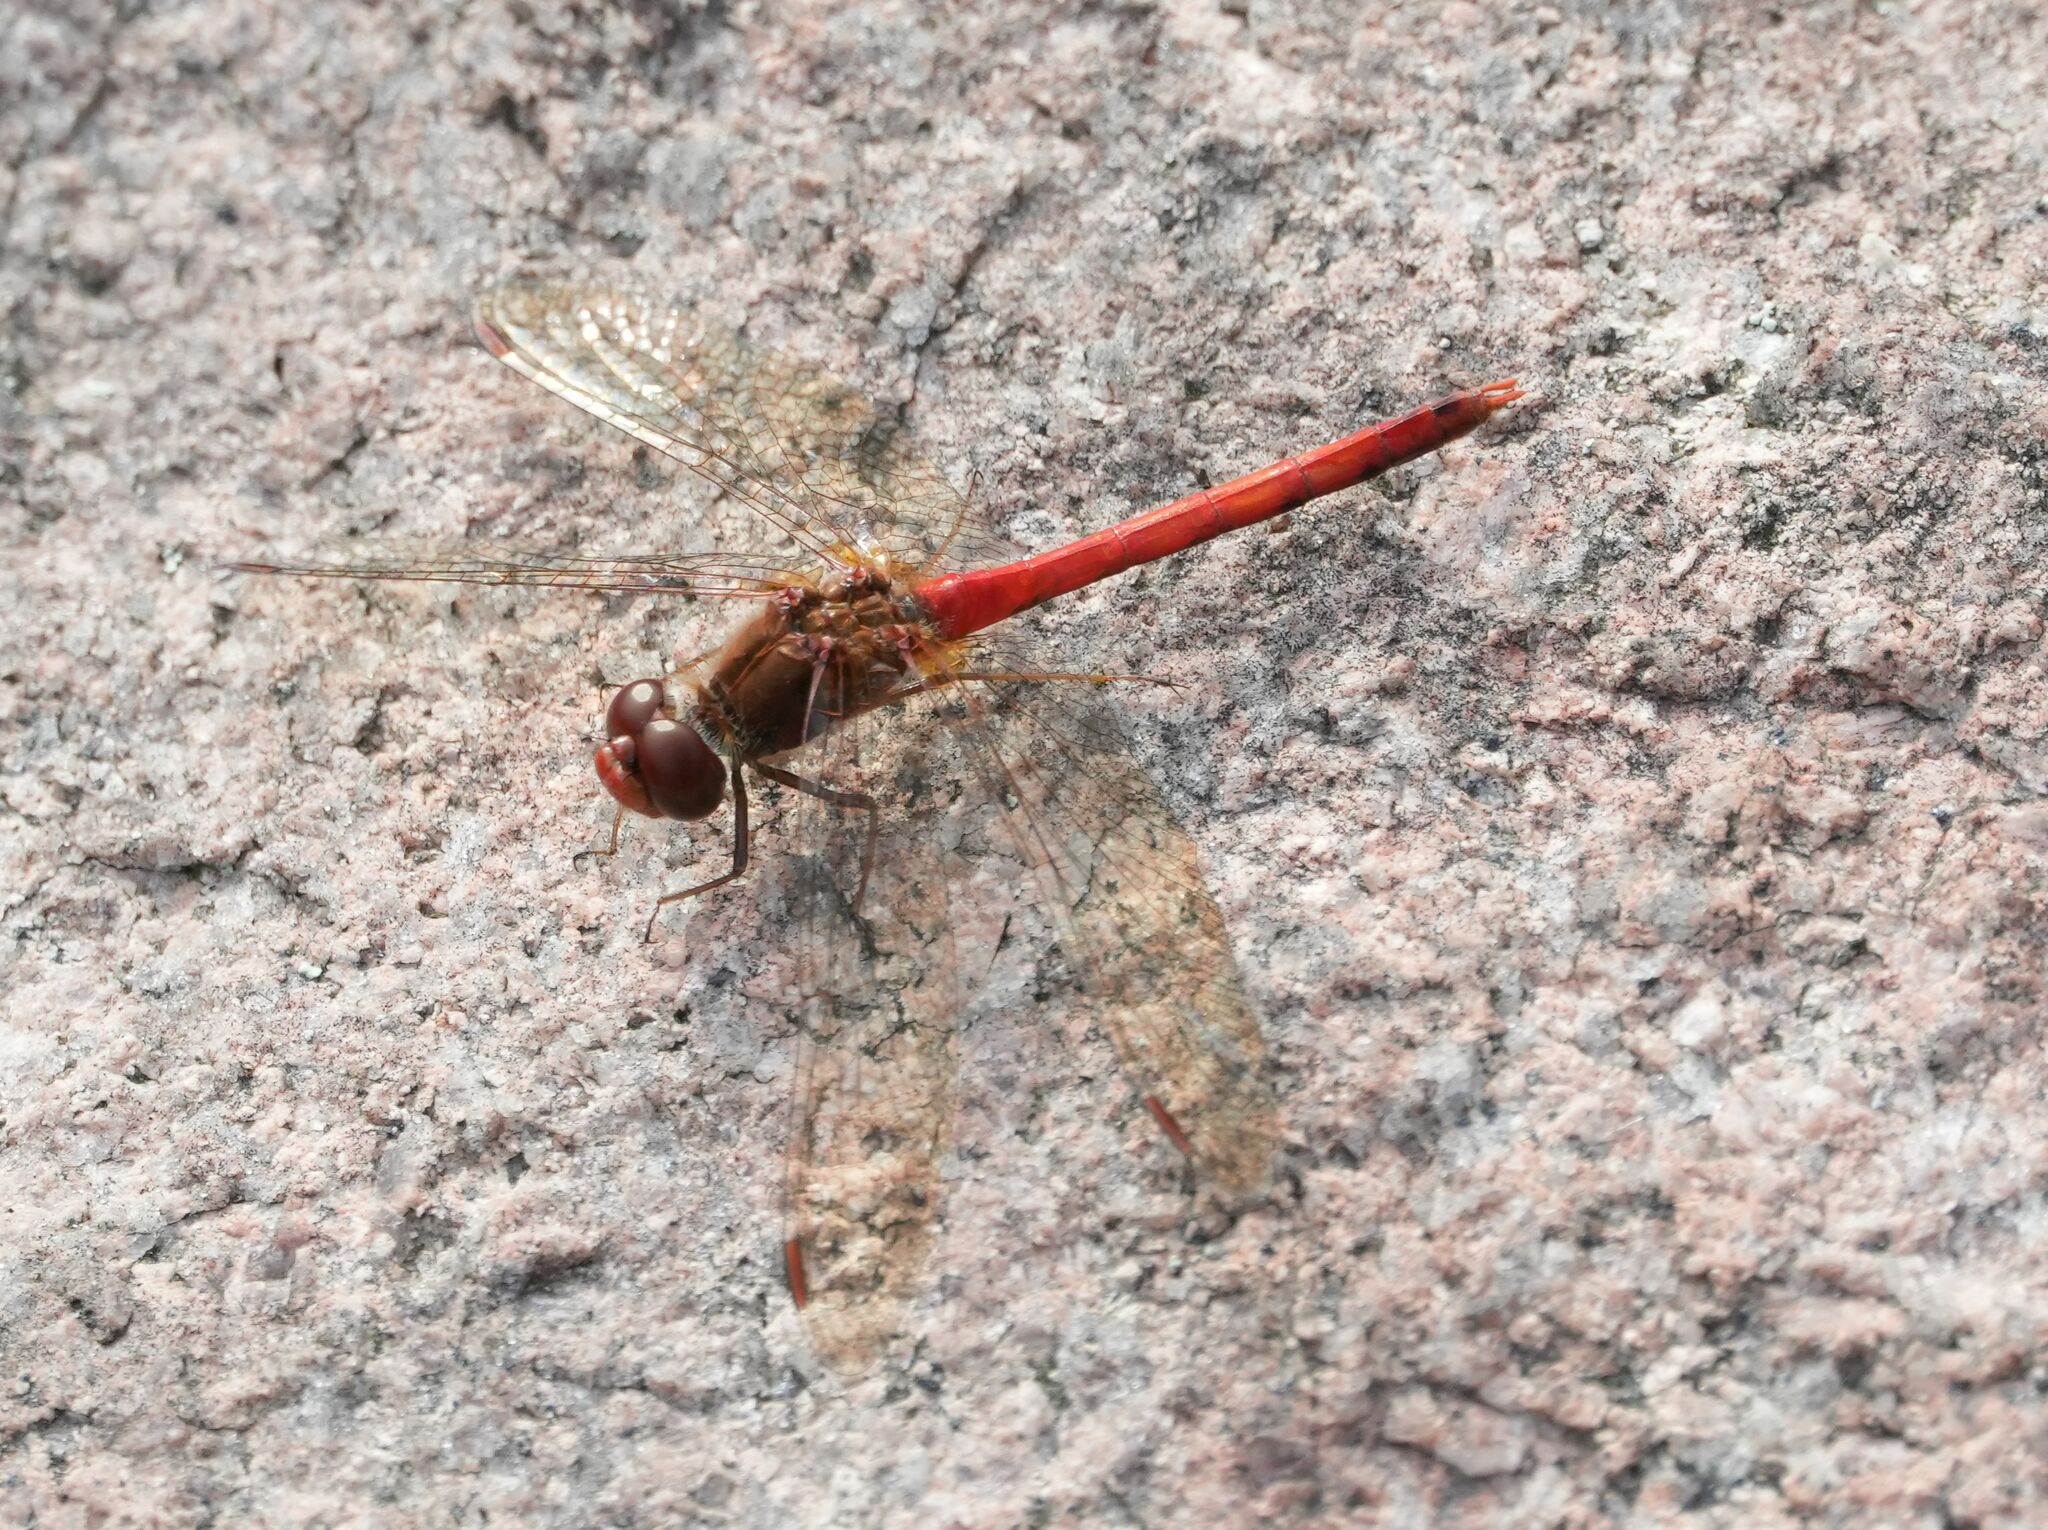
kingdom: Animalia
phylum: Arthropoda
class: Insecta
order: Odonata
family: Libellulidae
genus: Sympetrum
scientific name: Sympetrum vicinum
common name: Autumn meadowhawk
